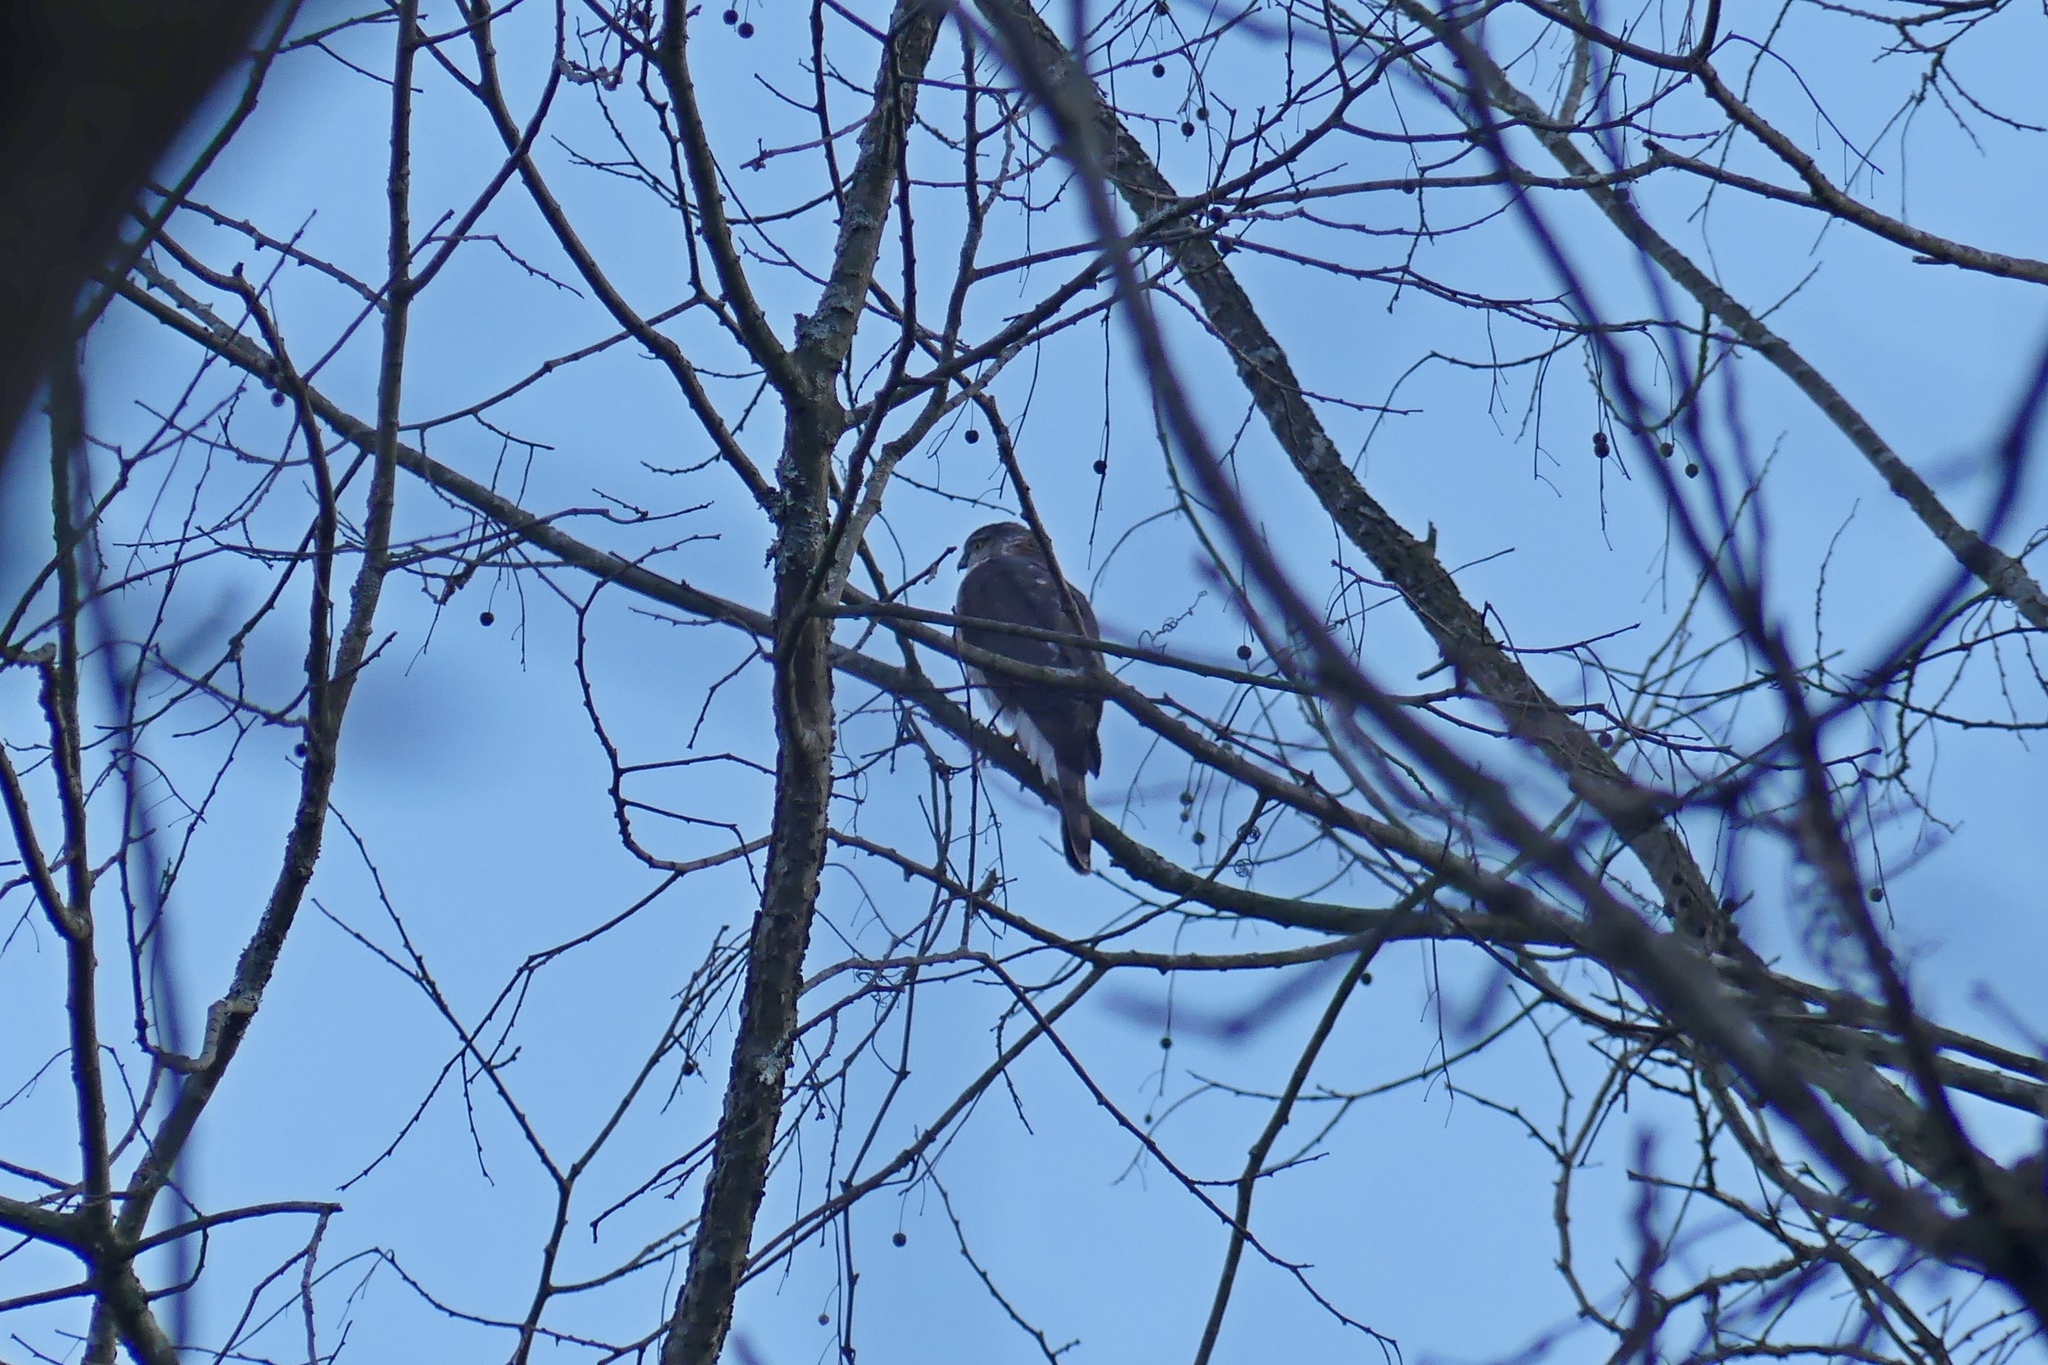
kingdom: Animalia
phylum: Chordata
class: Aves
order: Accipitriformes
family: Accipitridae
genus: Accipiter
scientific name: Accipiter striatus
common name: Sharp-shinned hawk
